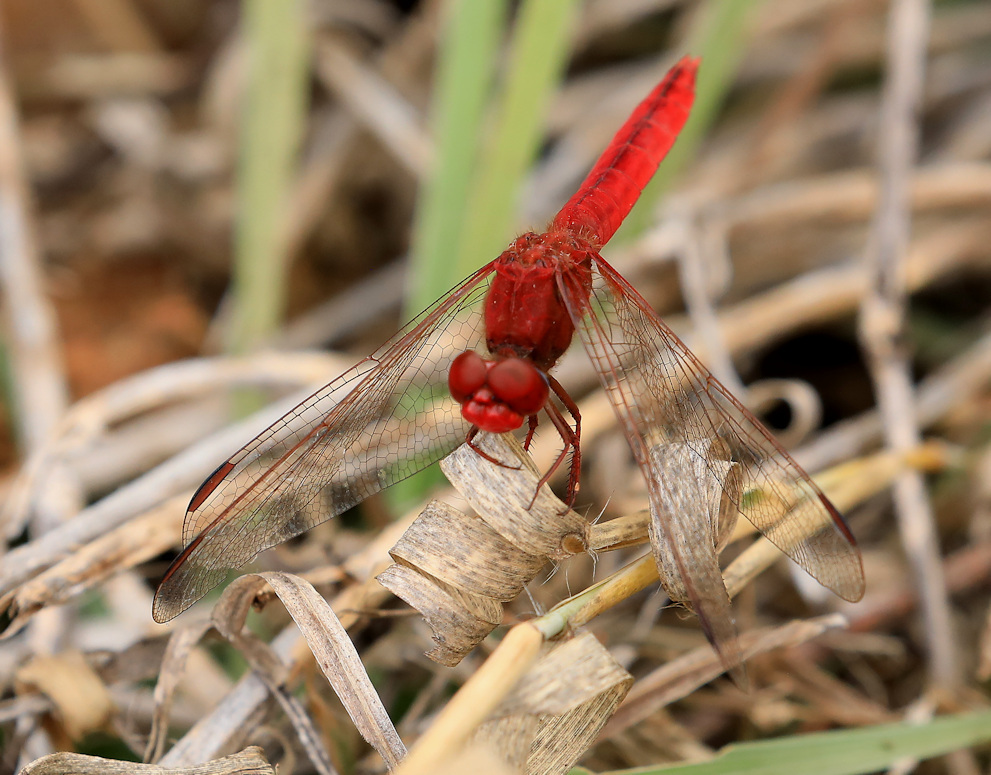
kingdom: Animalia
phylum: Arthropoda
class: Insecta
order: Odonata
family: Libellulidae
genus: Crocothemis
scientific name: Crocothemis erythraea
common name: Scarlet dragonfly
